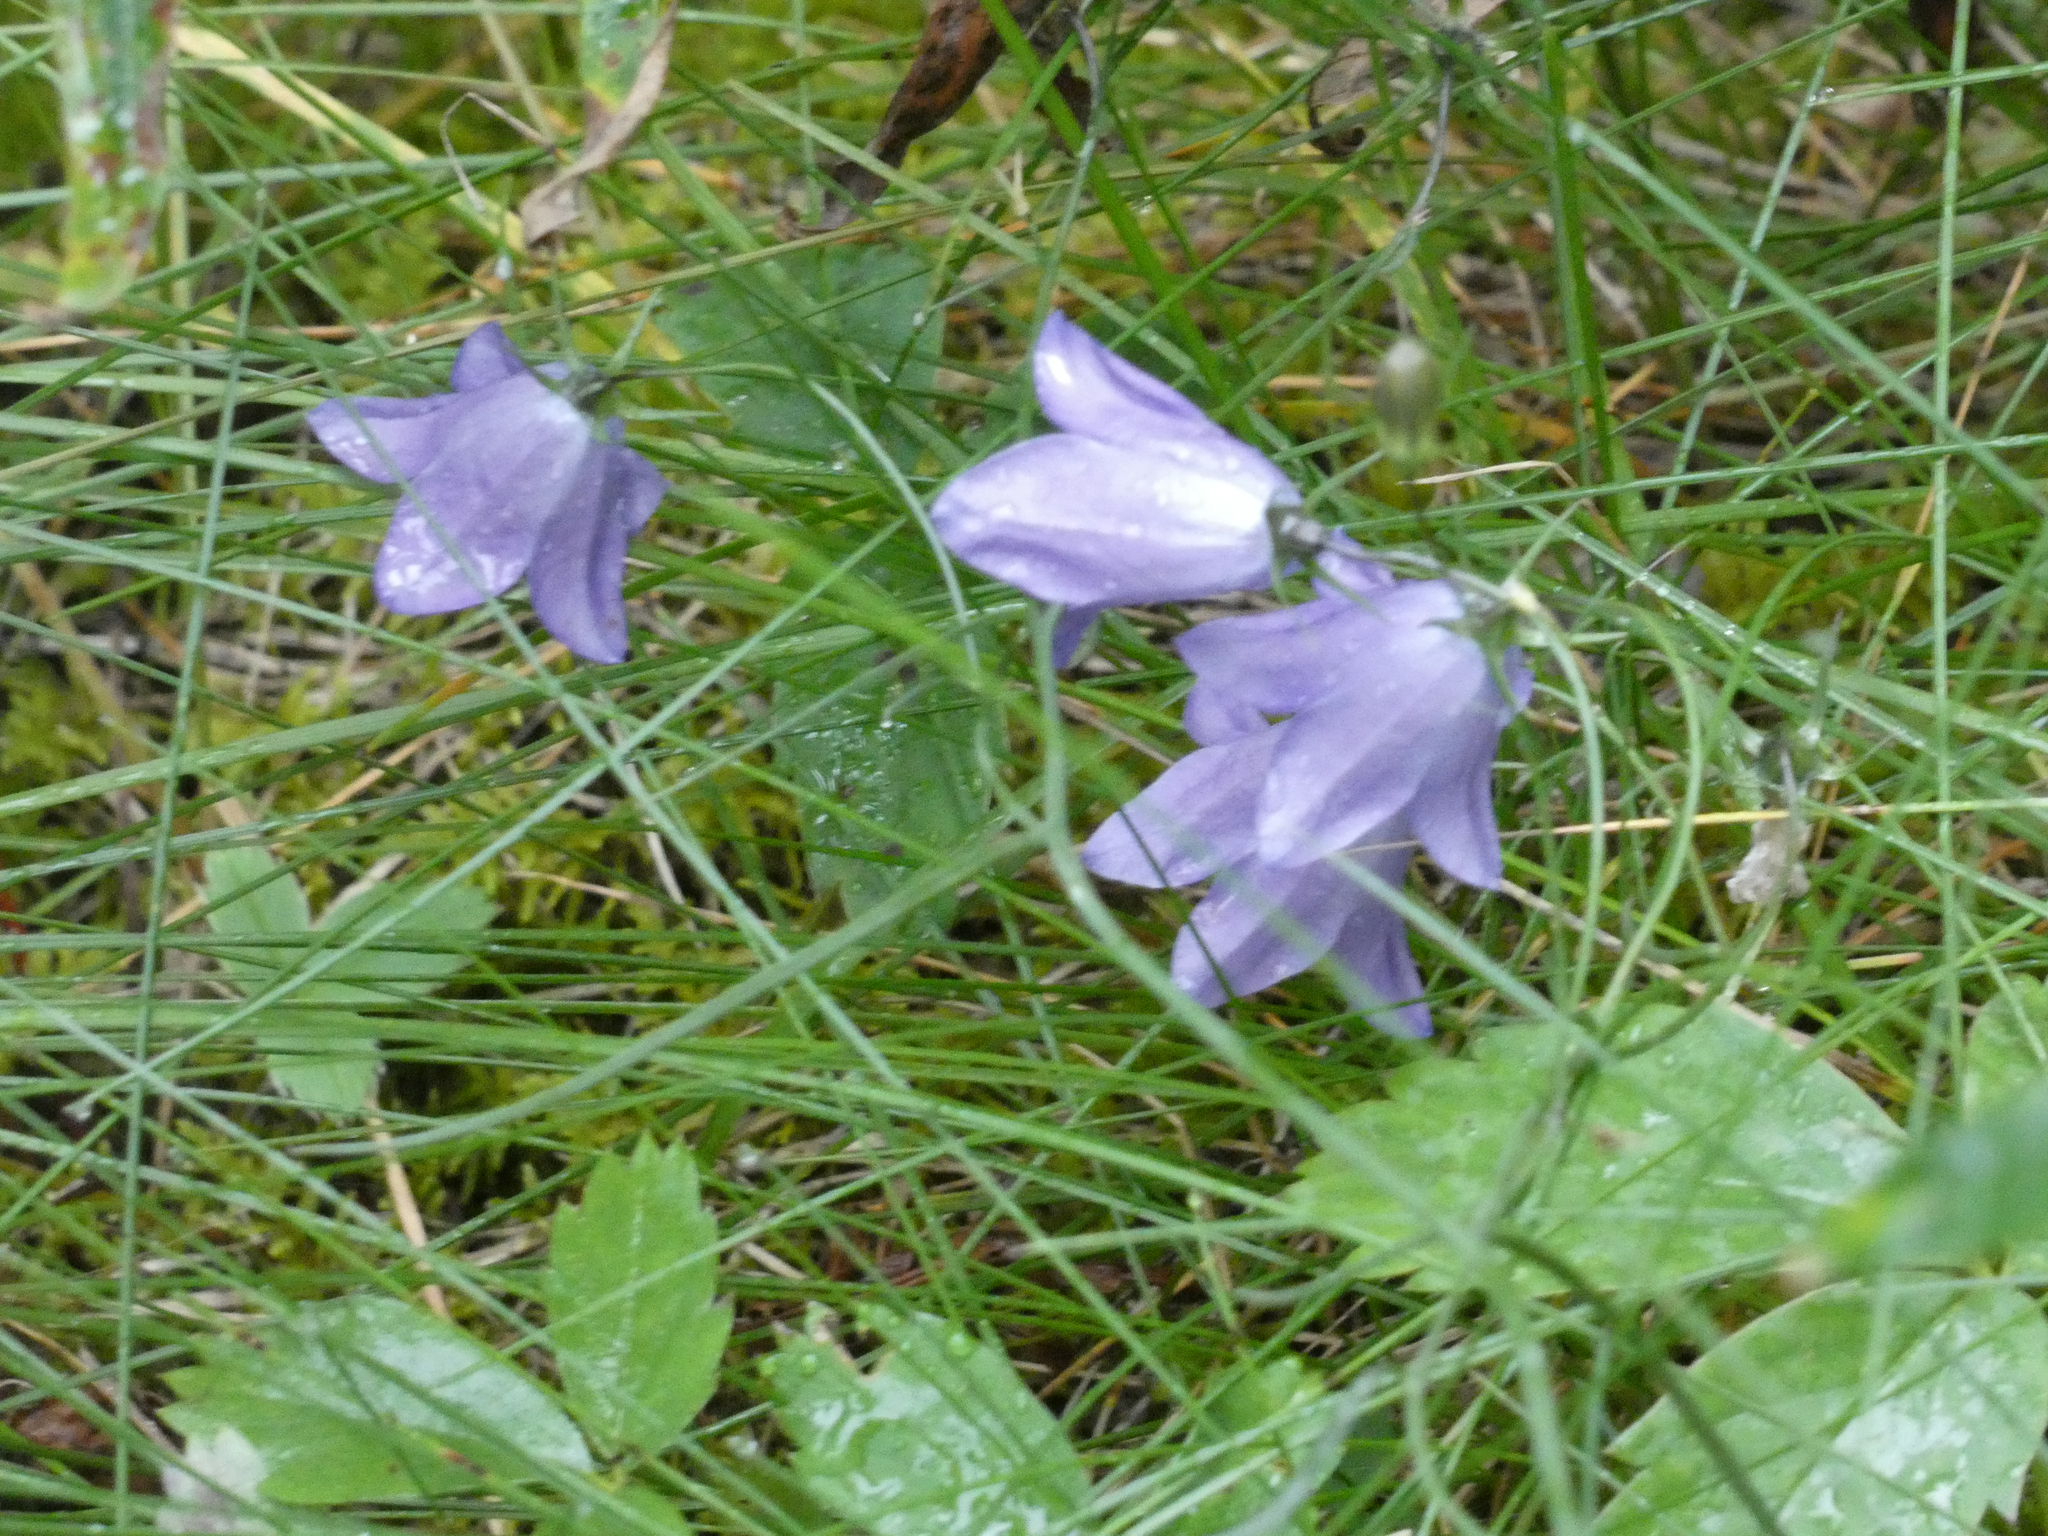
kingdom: Plantae
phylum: Tracheophyta
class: Magnoliopsida
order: Asterales
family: Campanulaceae
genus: Campanula
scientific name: Campanula alaskana
